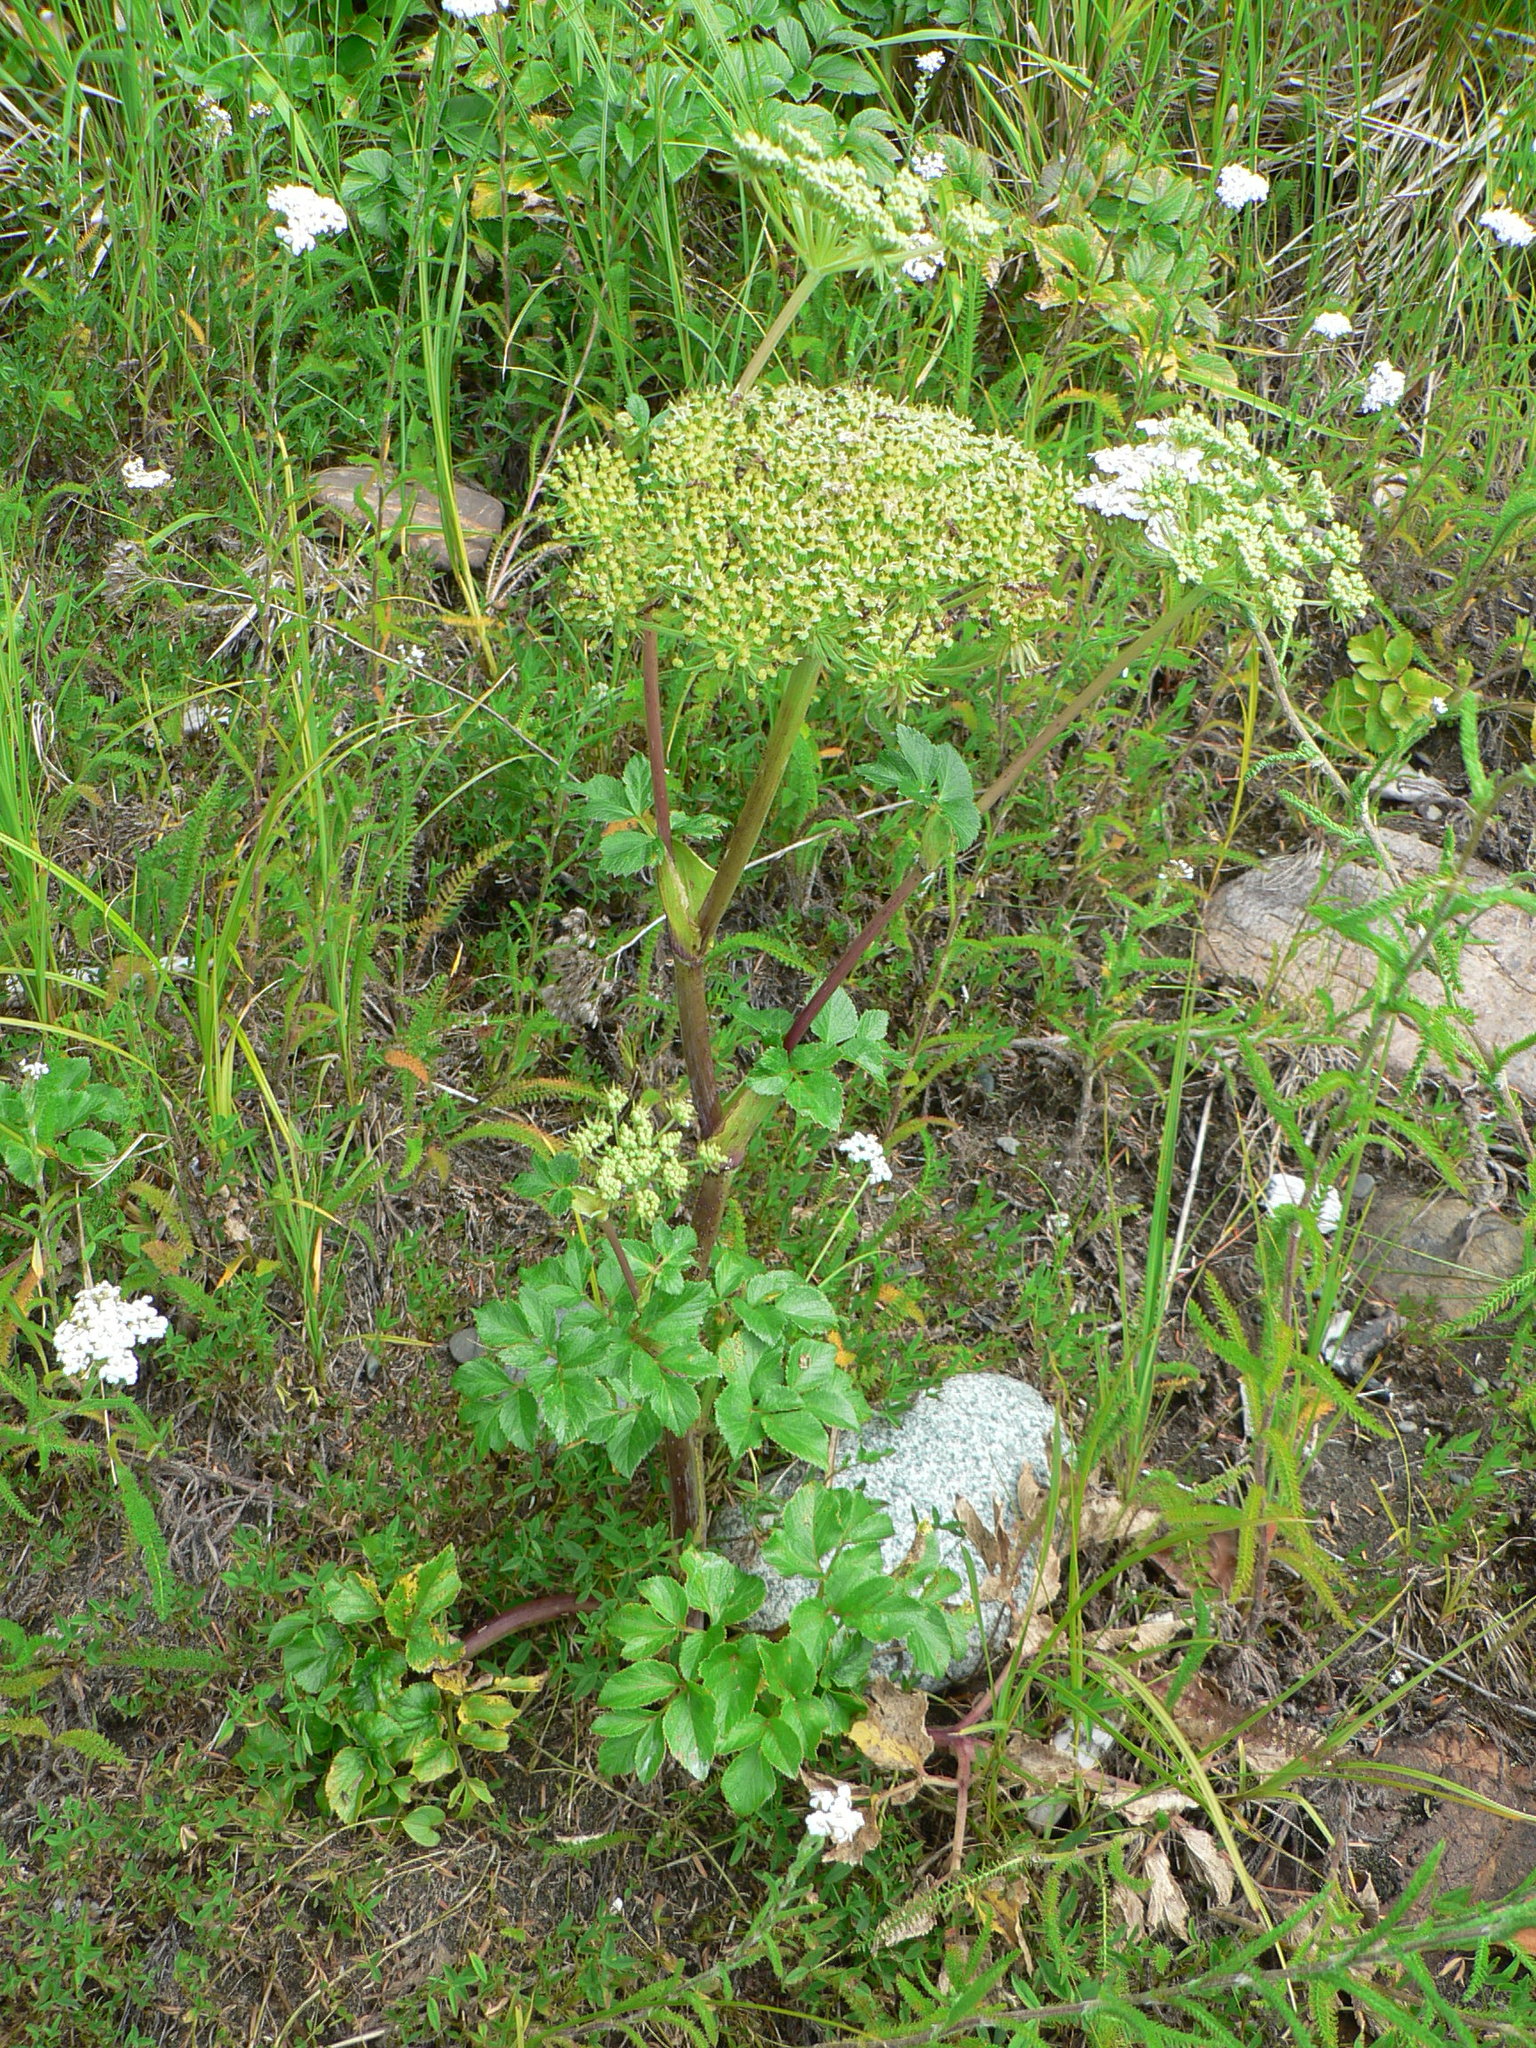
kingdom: Plantae
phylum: Tracheophyta
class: Magnoliopsida
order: Apiales
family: Apiaceae
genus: Angelica
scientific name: Angelica lucida
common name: Seabeach angelica
